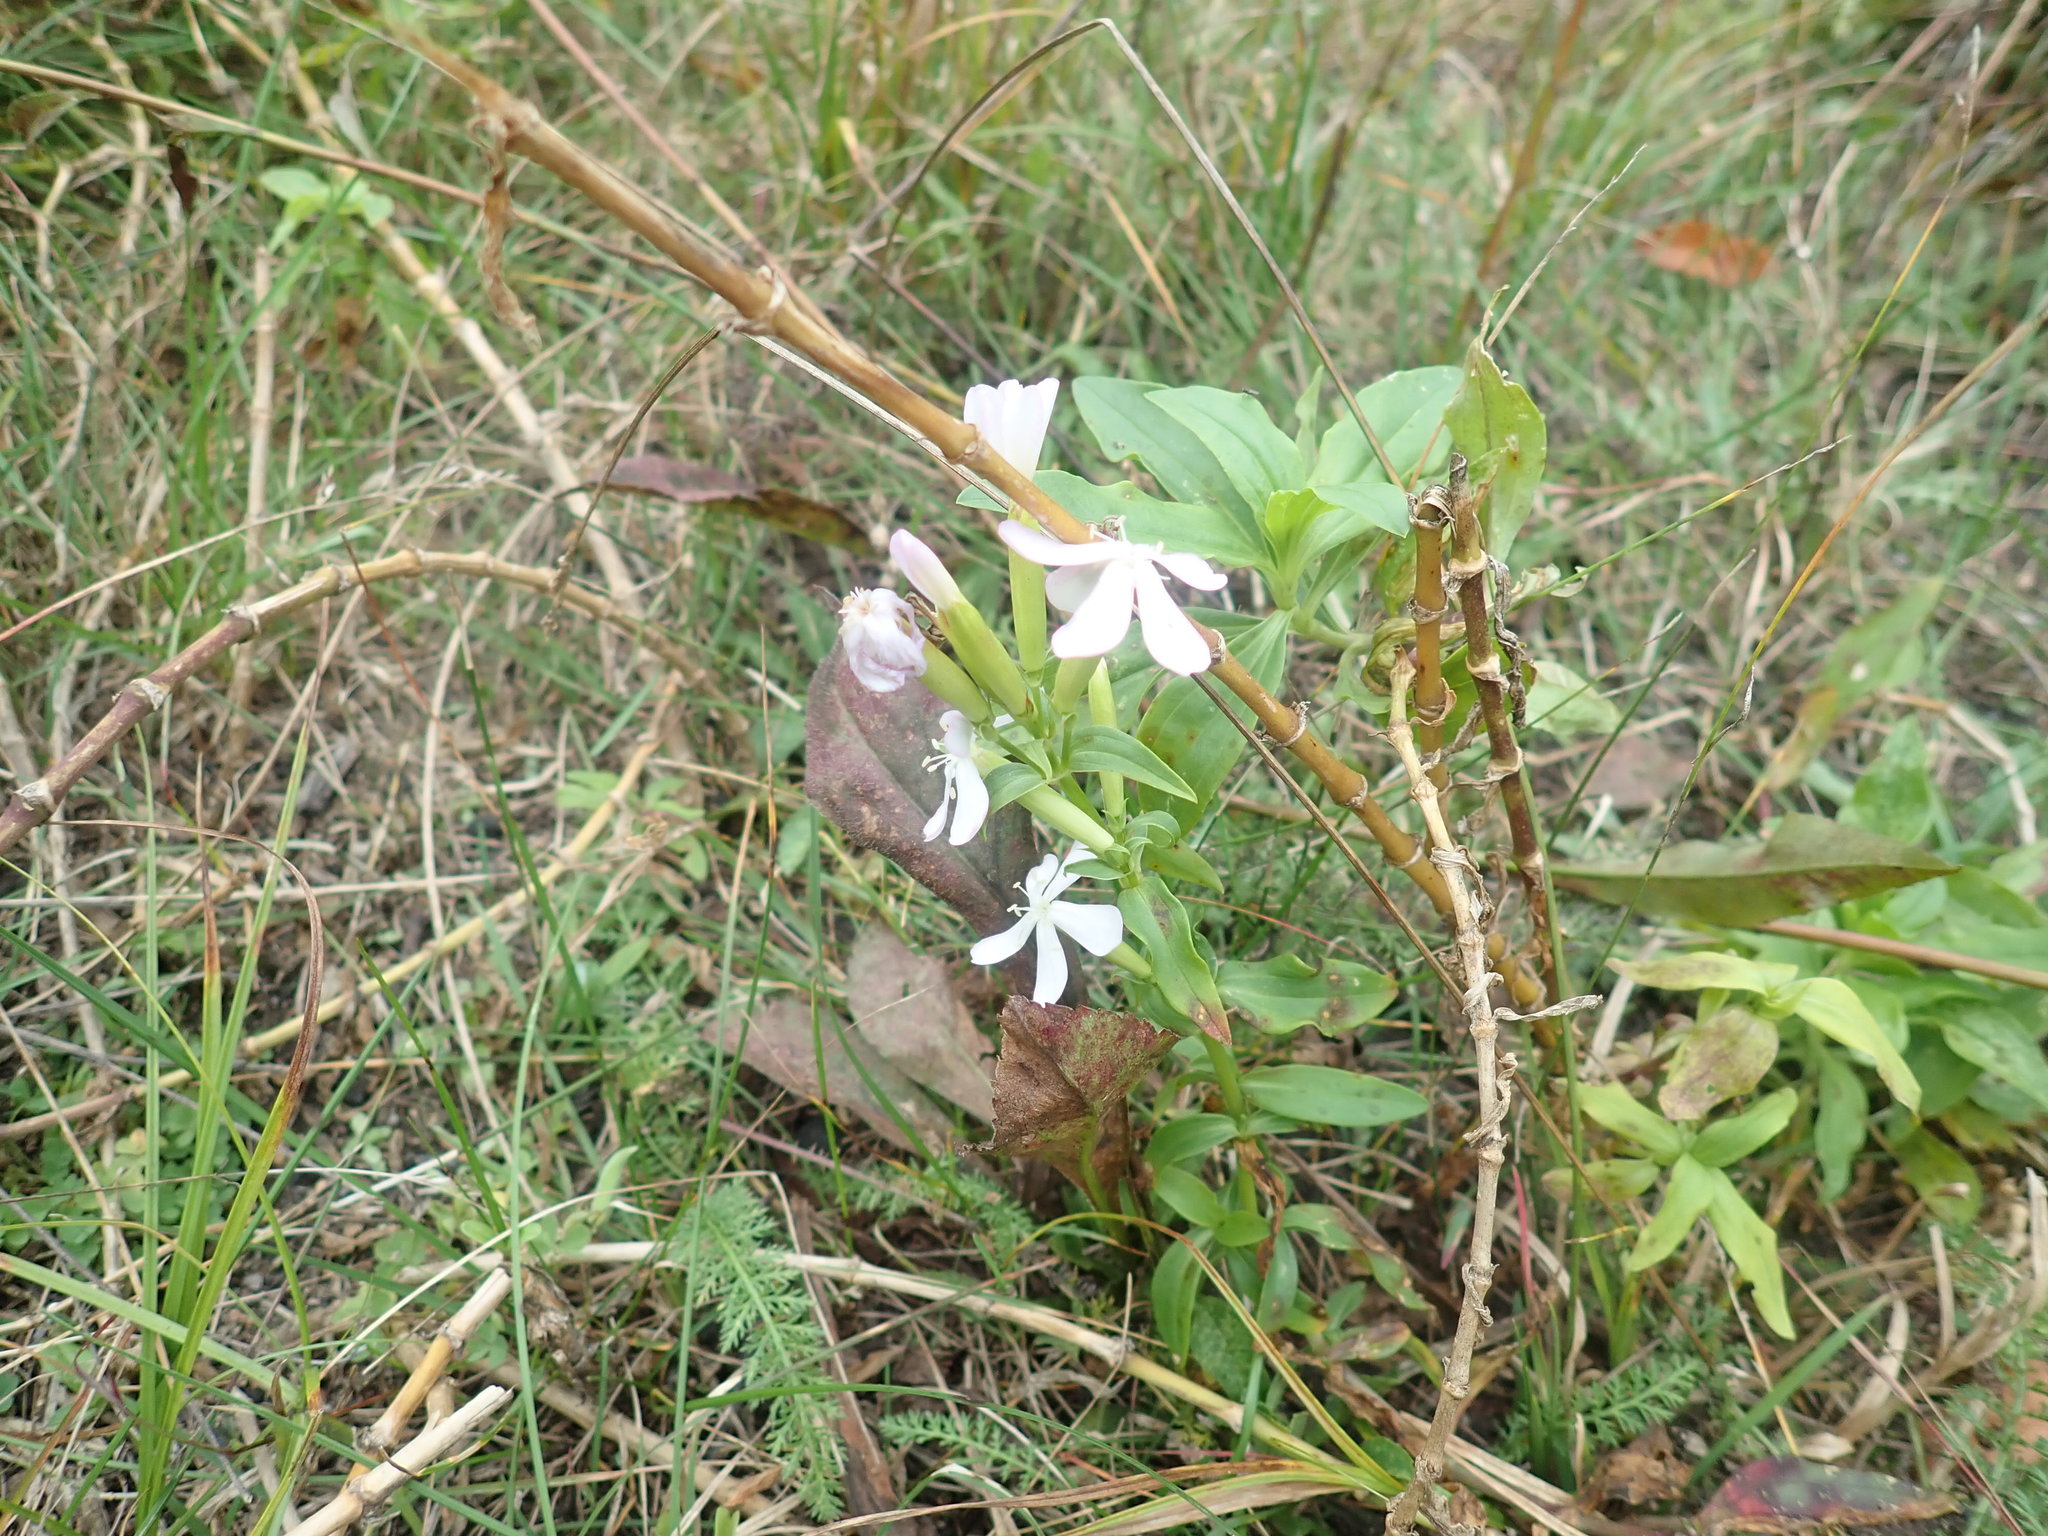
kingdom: Plantae
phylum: Tracheophyta
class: Magnoliopsida
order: Caryophyllales
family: Caryophyllaceae
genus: Saponaria
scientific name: Saponaria officinalis
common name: Soapwort
